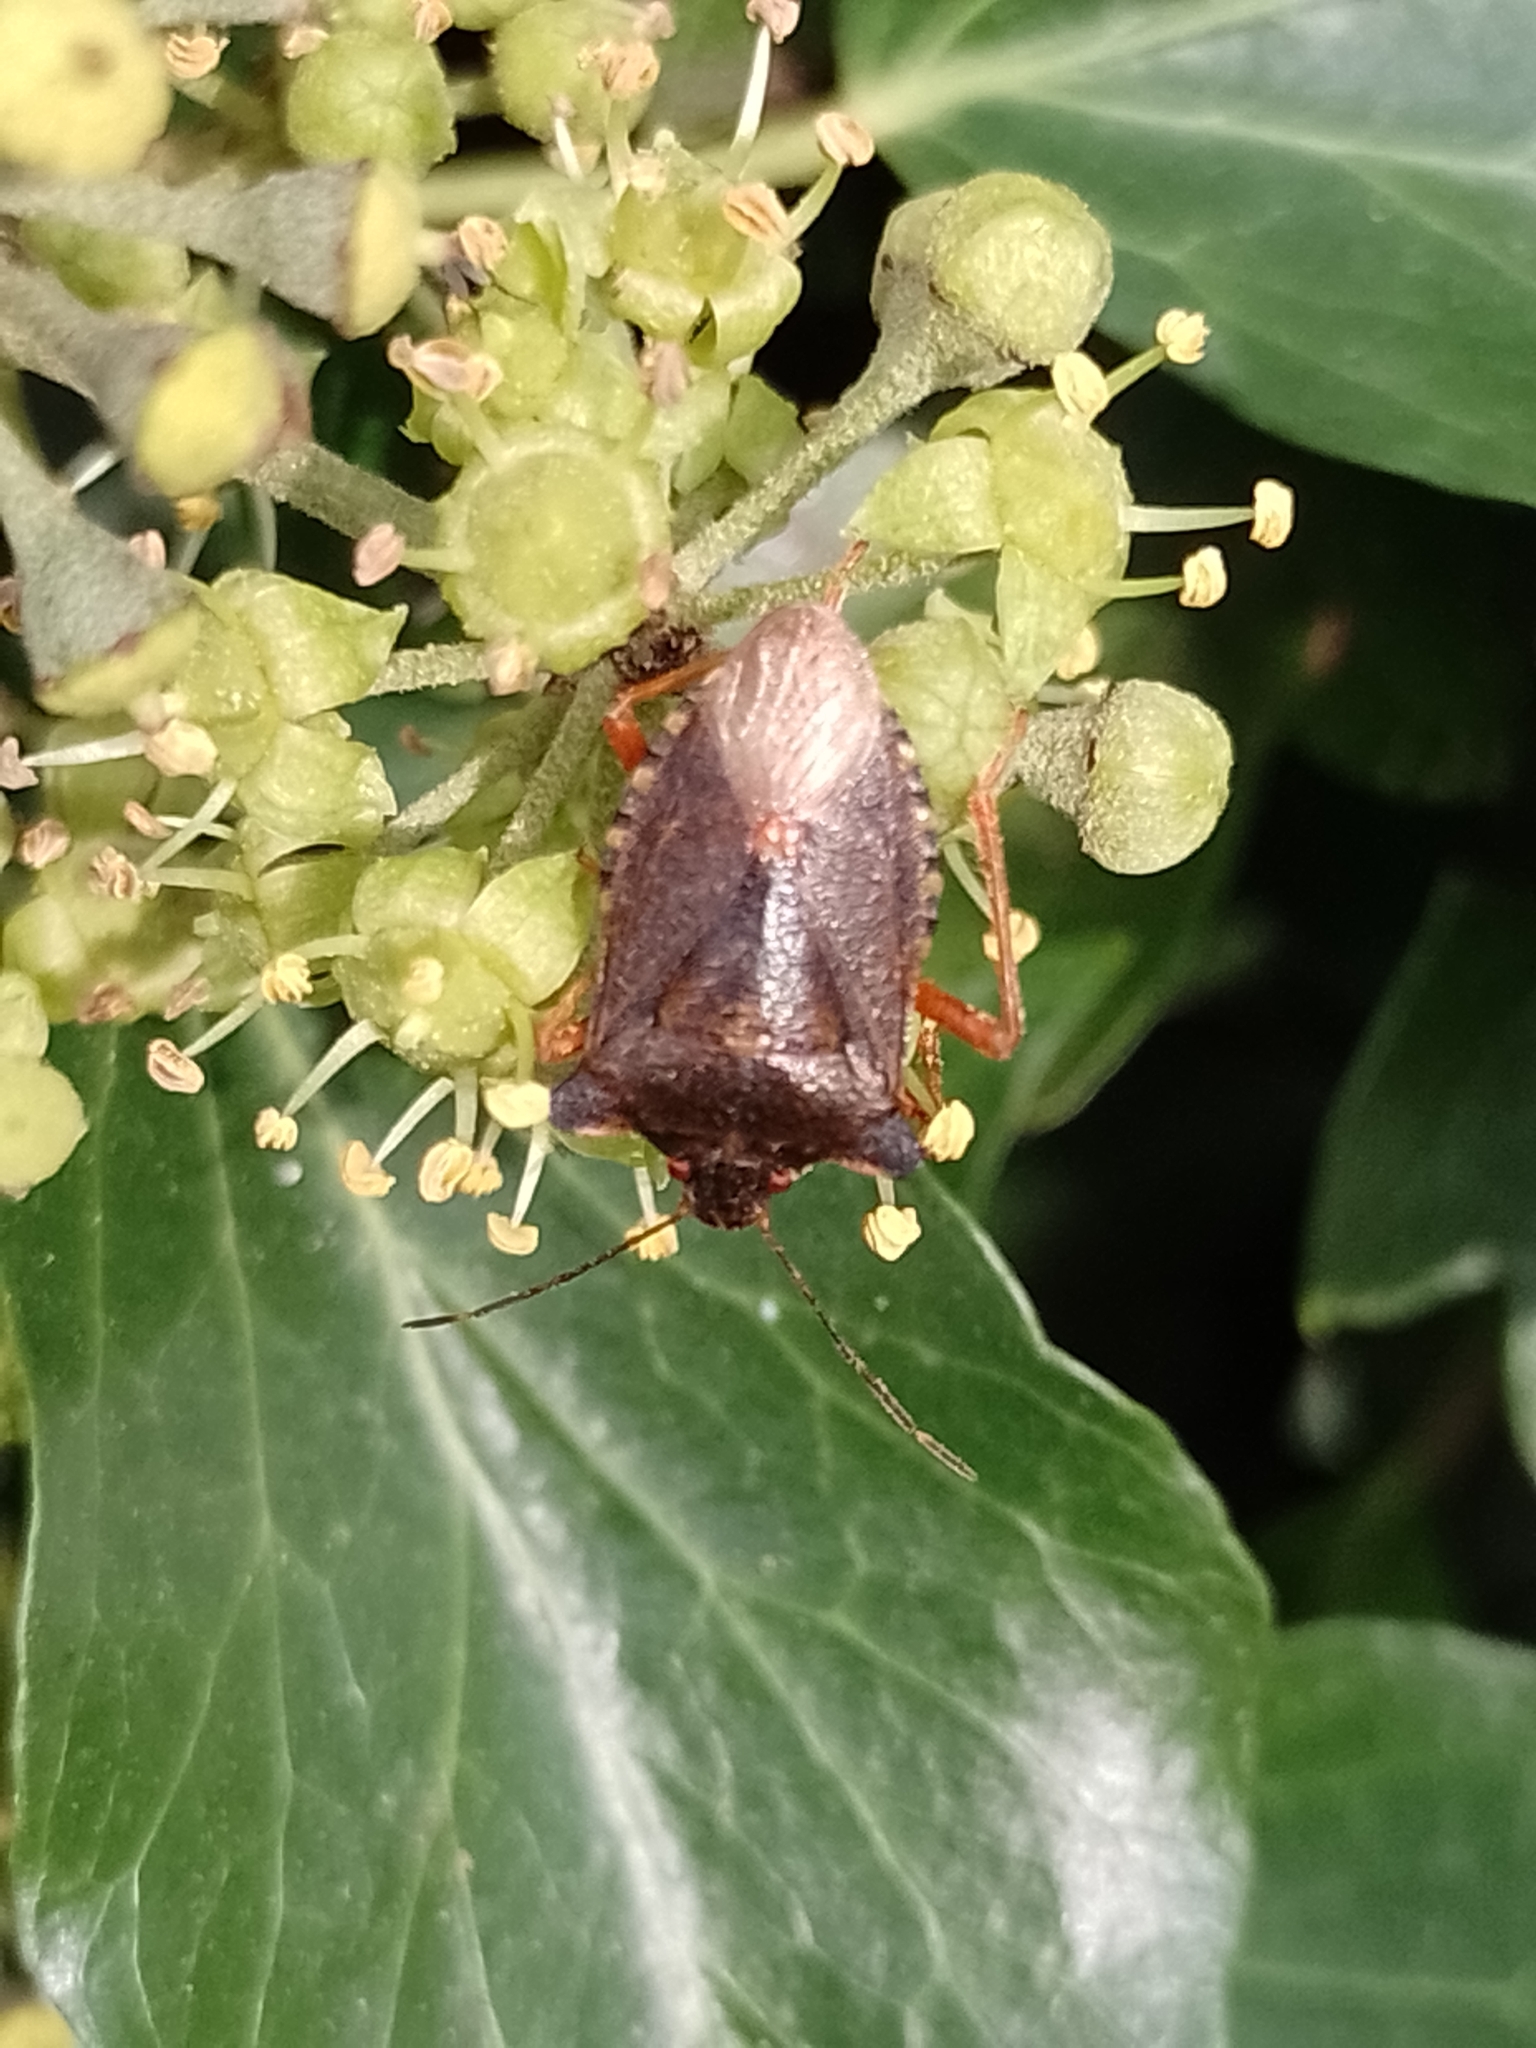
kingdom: Animalia
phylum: Arthropoda
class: Insecta
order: Hemiptera
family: Pentatomidae
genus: Pentatoma
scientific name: Pentatoma rufipes
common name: Forest bug
